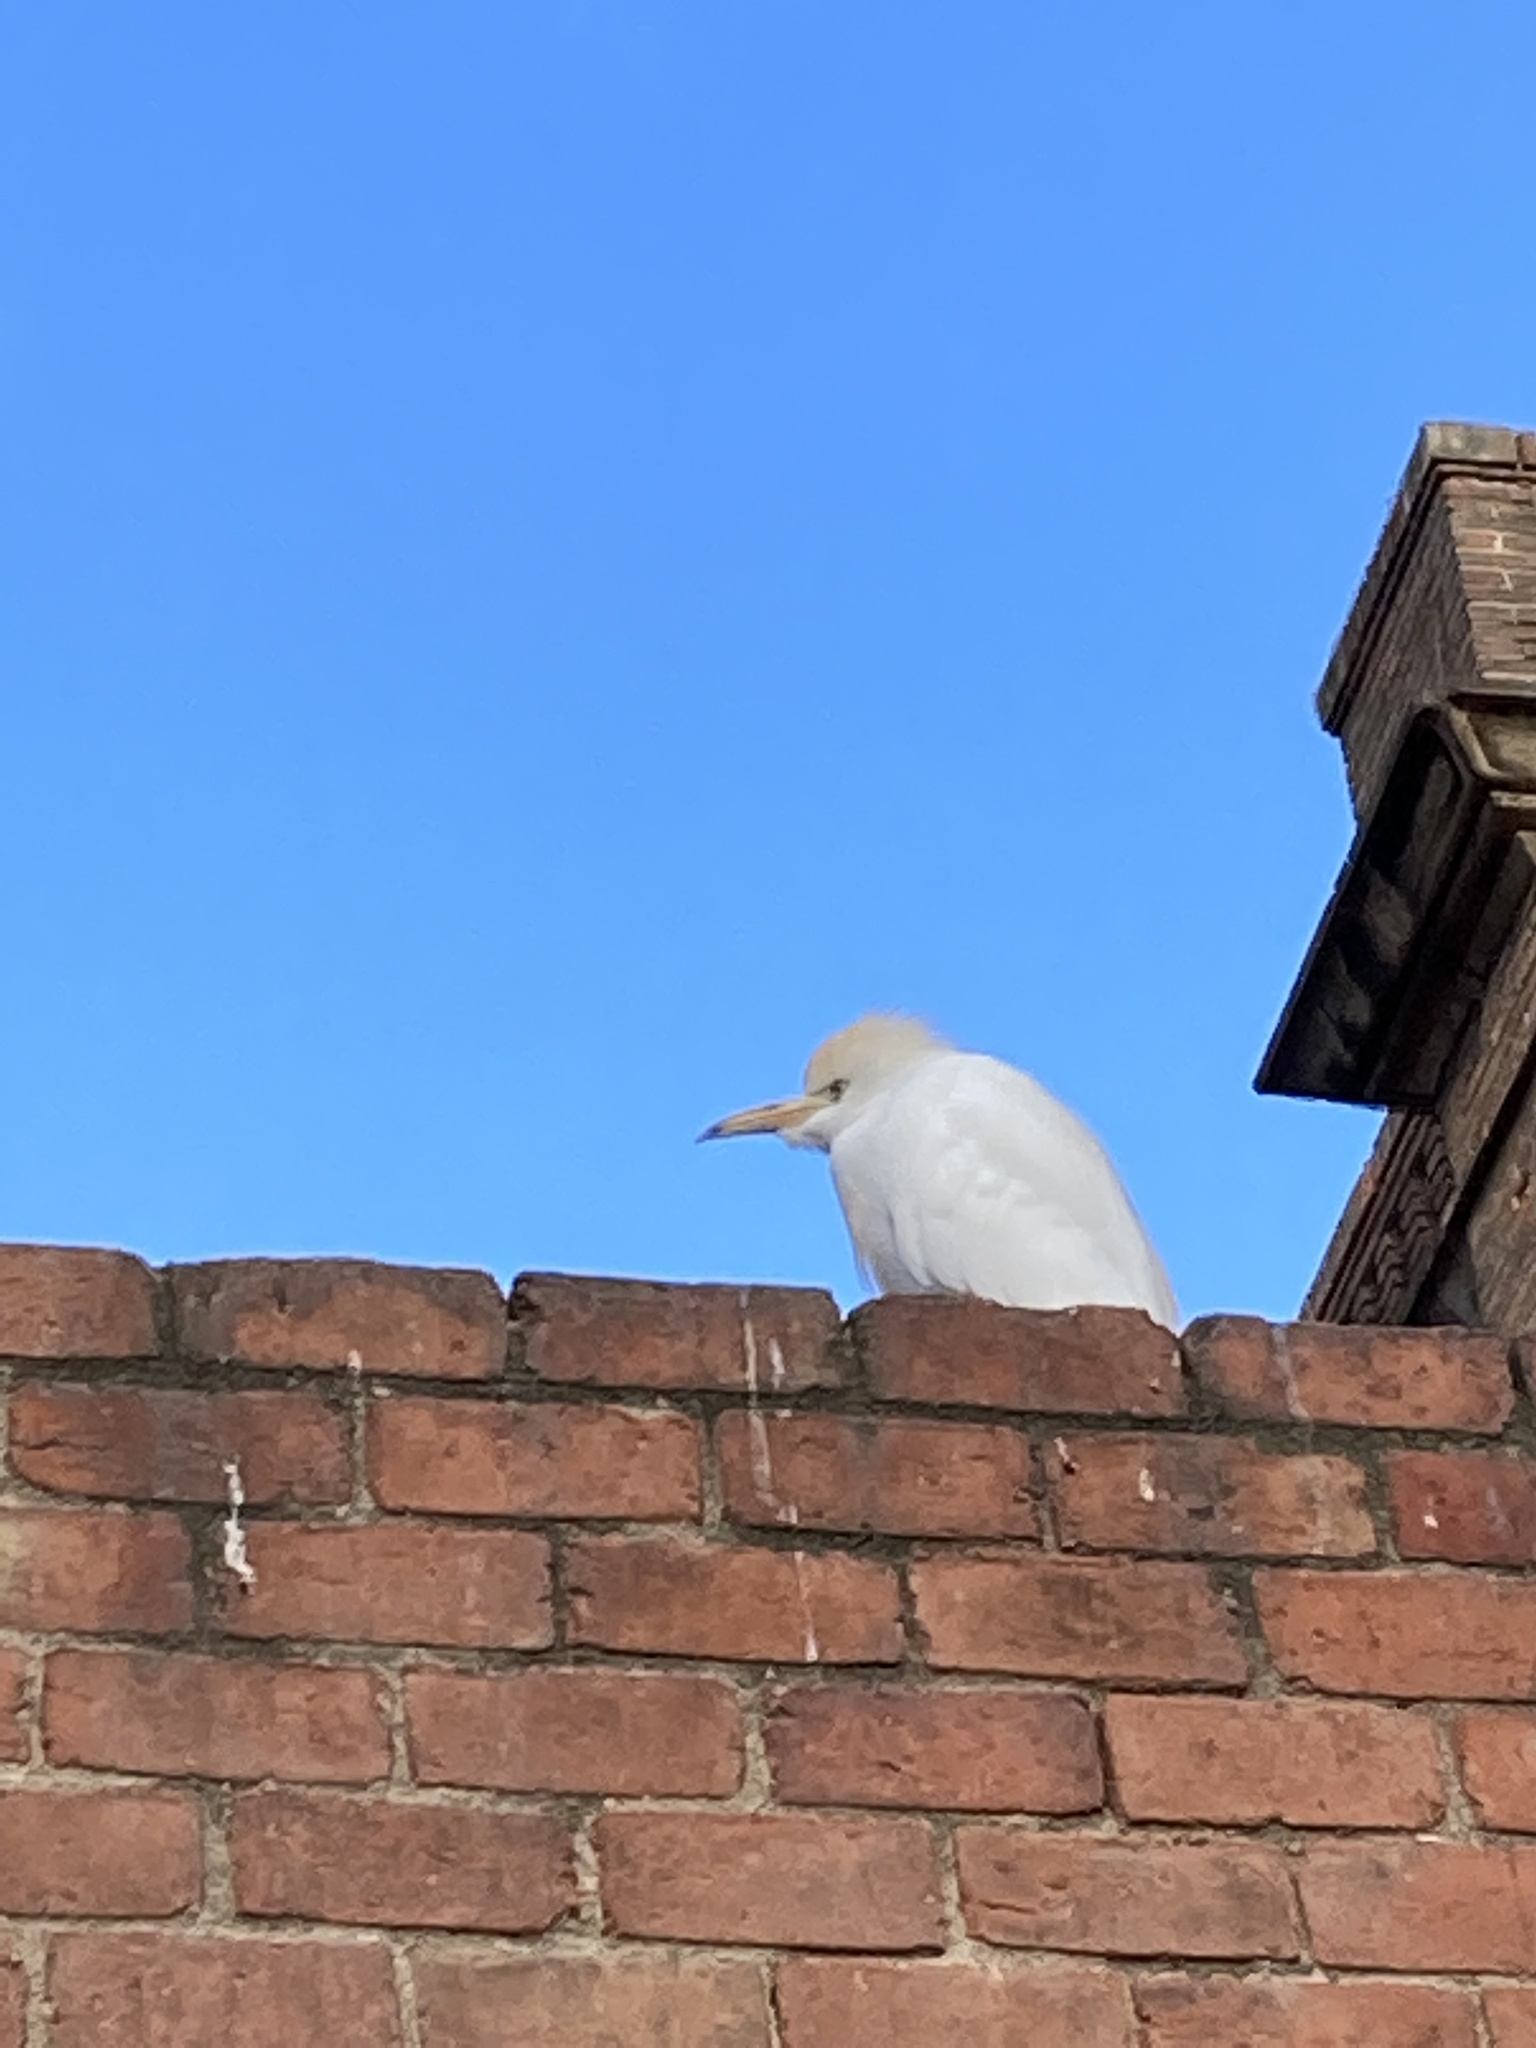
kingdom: Animalia
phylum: Chordata
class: Aves
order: Pelecaniformes
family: Ardeidae
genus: Bubulcus
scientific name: Bubulcus ibis
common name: Cattle egret
